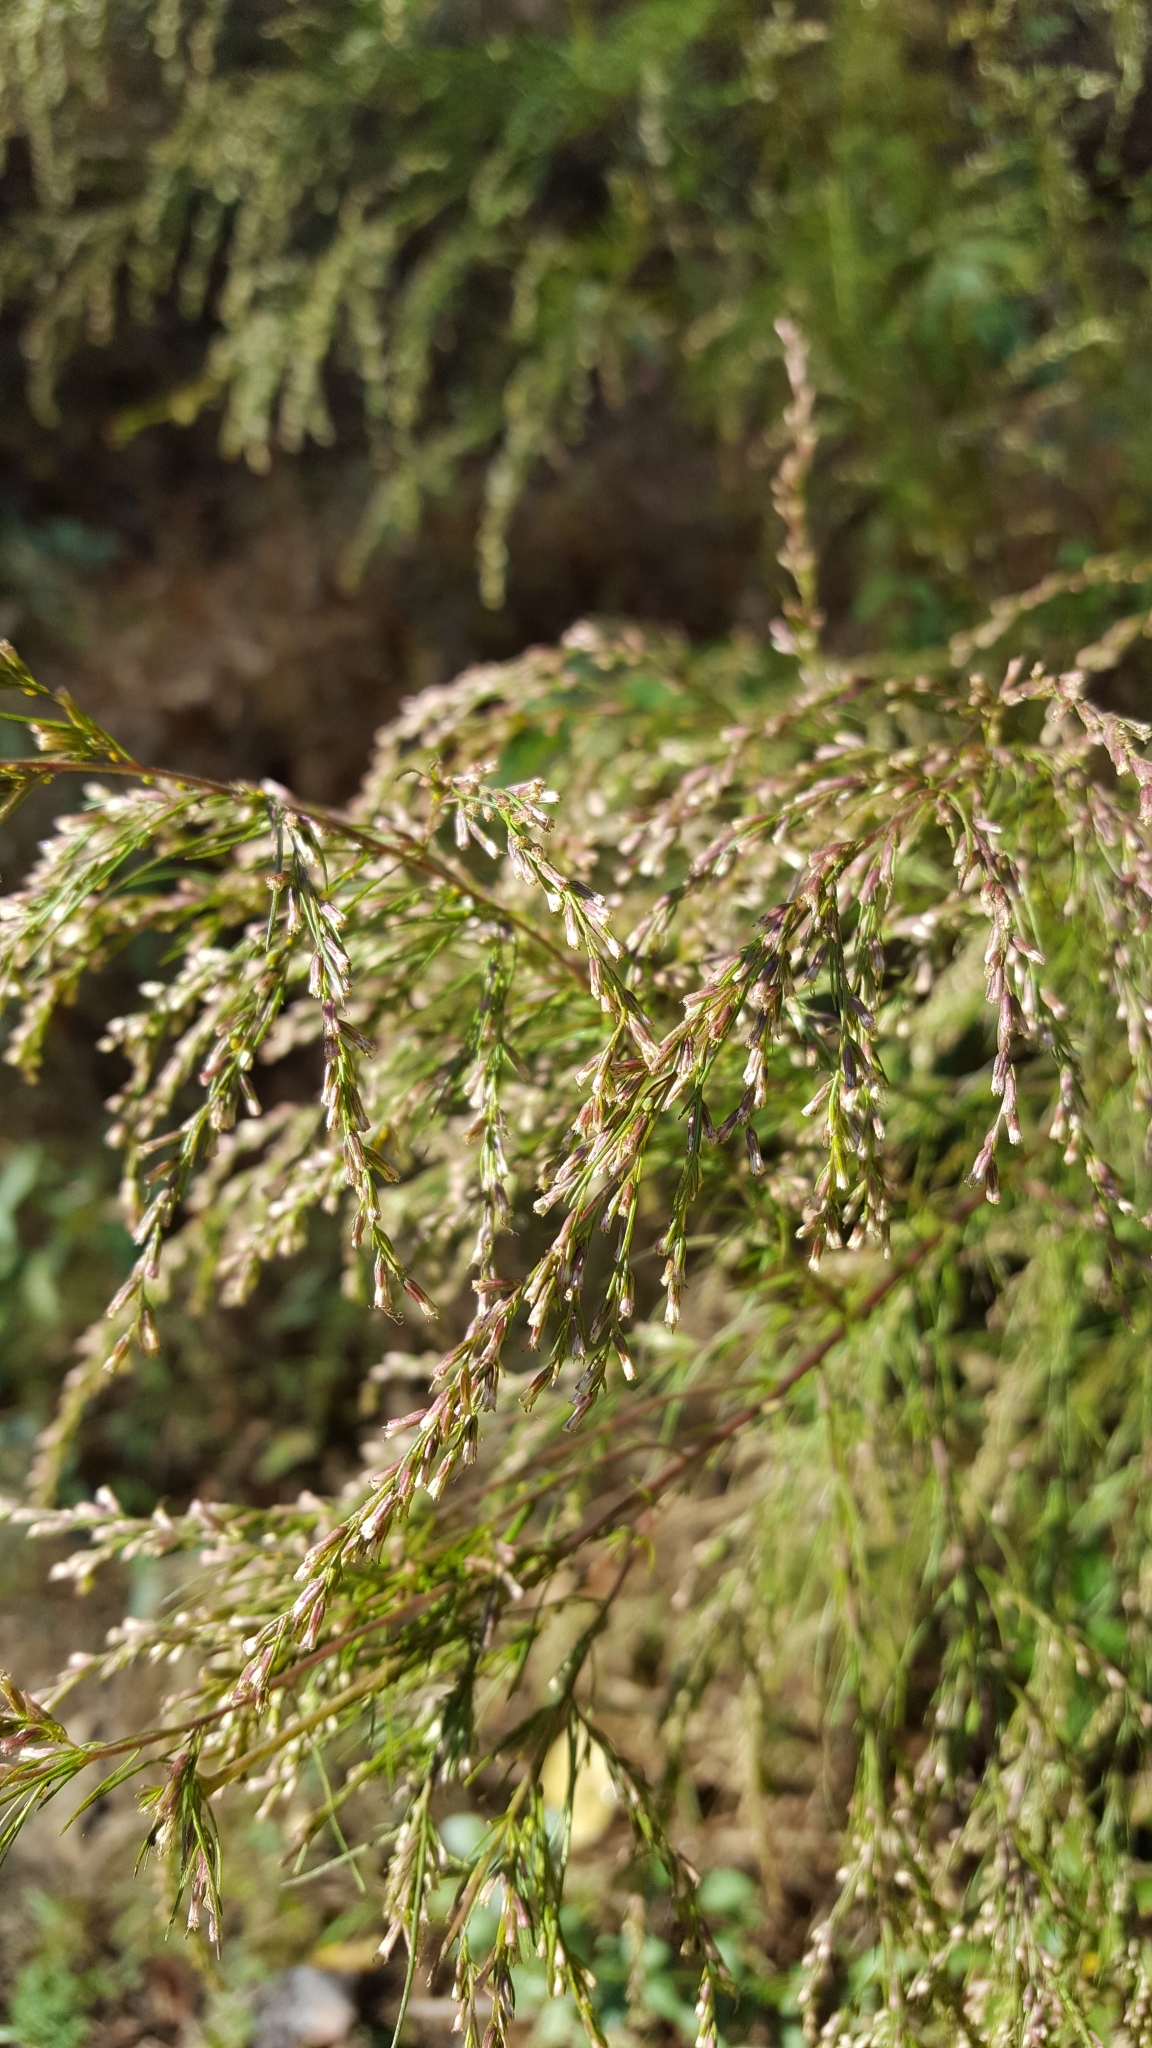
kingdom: Plantae
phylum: Tracheophyta
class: Magnoliopsida
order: Asterales
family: Asteraceae
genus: Eupatorium
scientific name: Eupatorium capillifolium
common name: Dog-fennel
